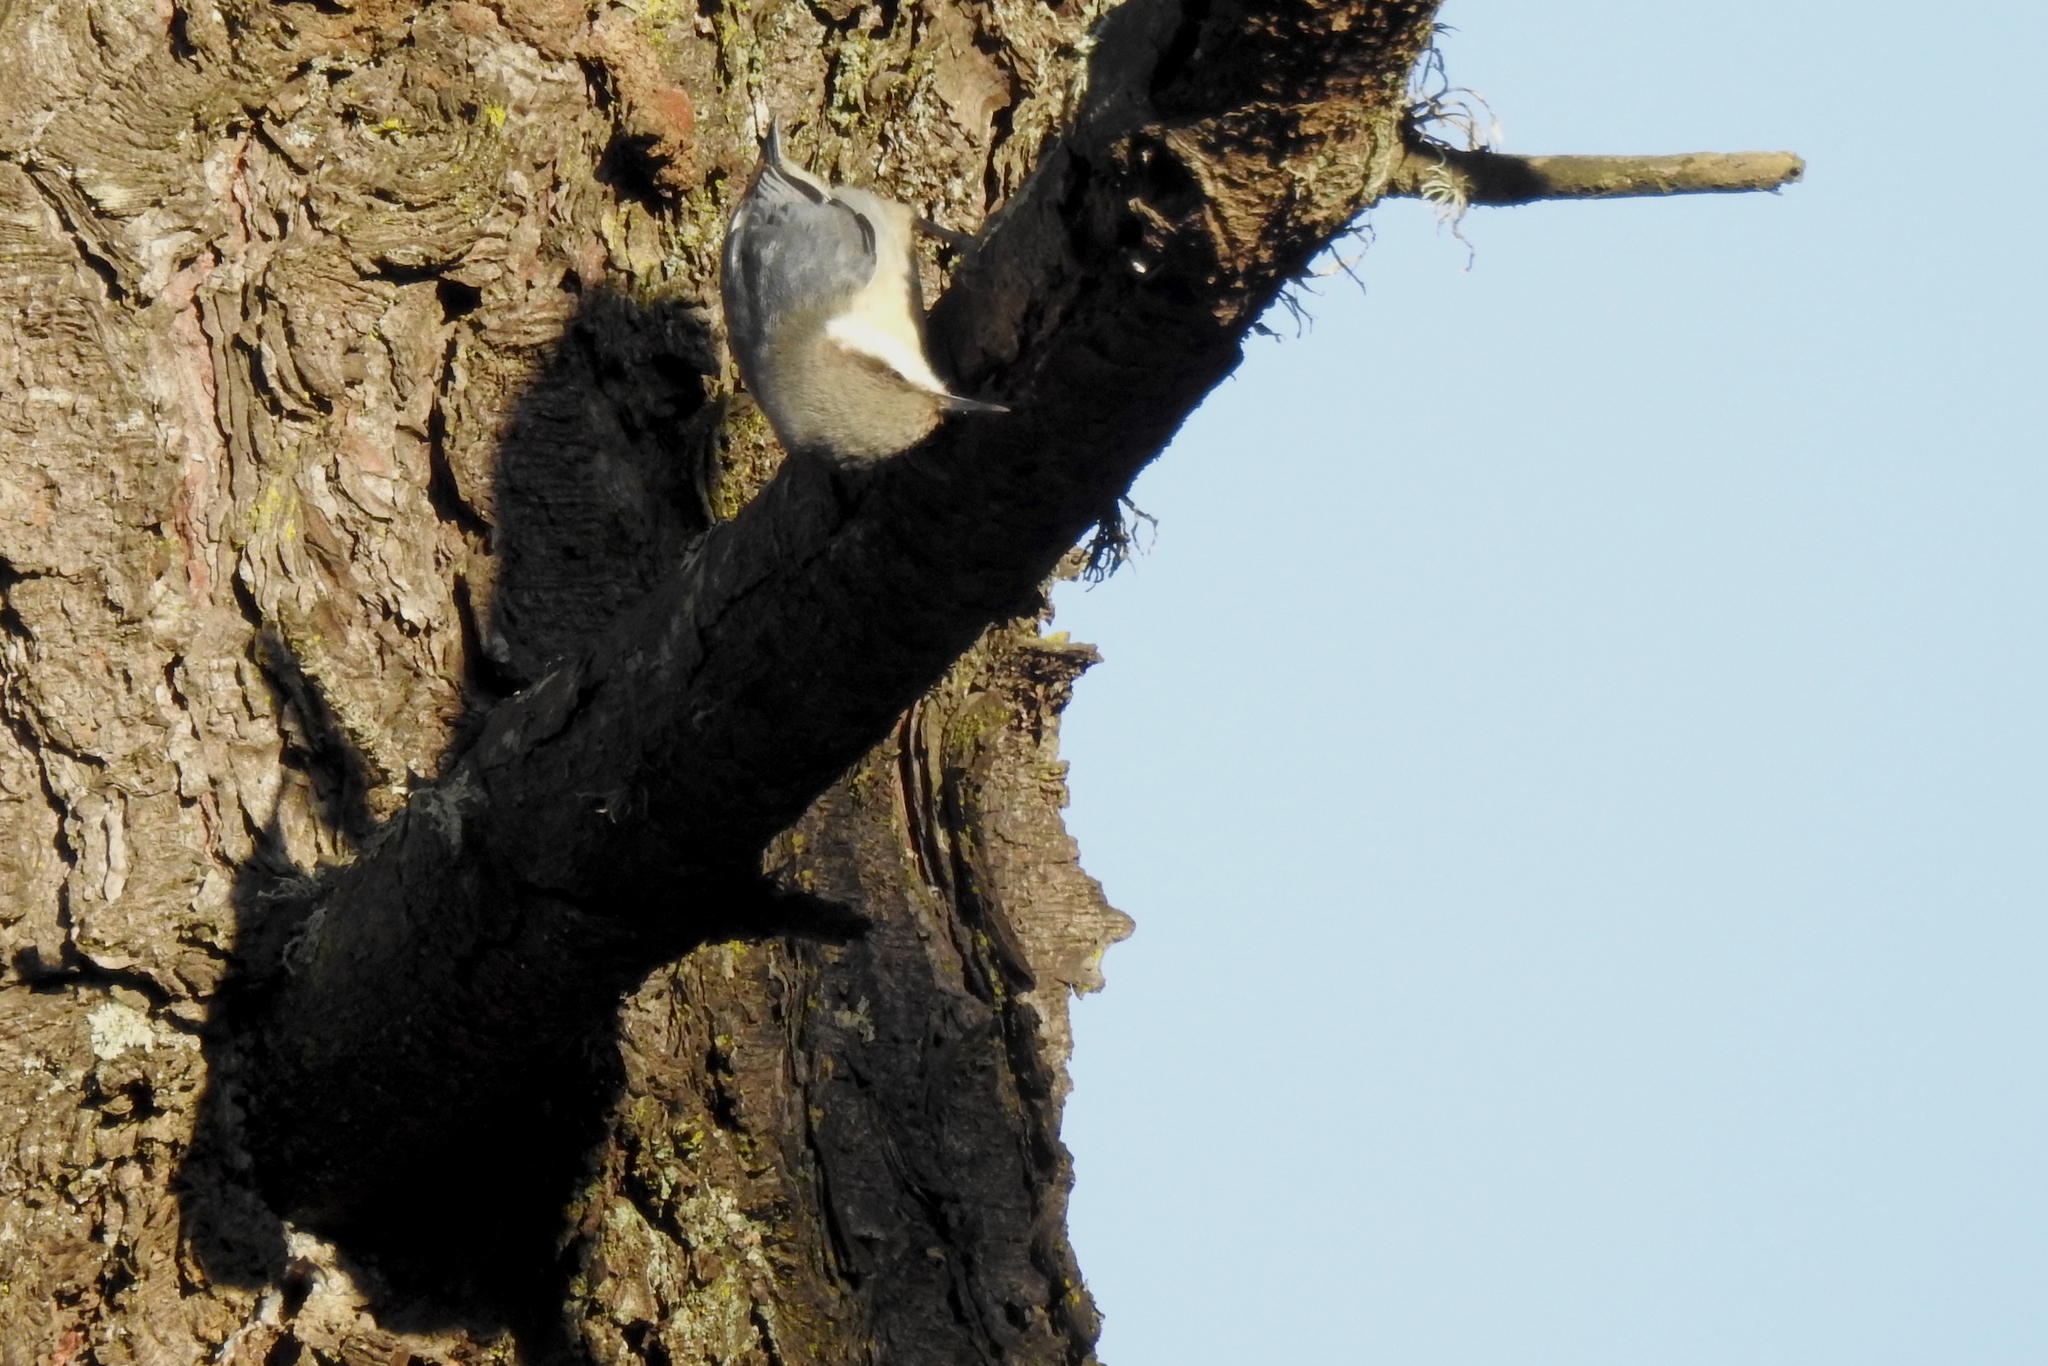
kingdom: Animalia
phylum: Chordata
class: Aves
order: Passeriformes
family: Sittidae
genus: Sitta
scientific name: Sitta pygmaea
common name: Pygmy nuthatch
